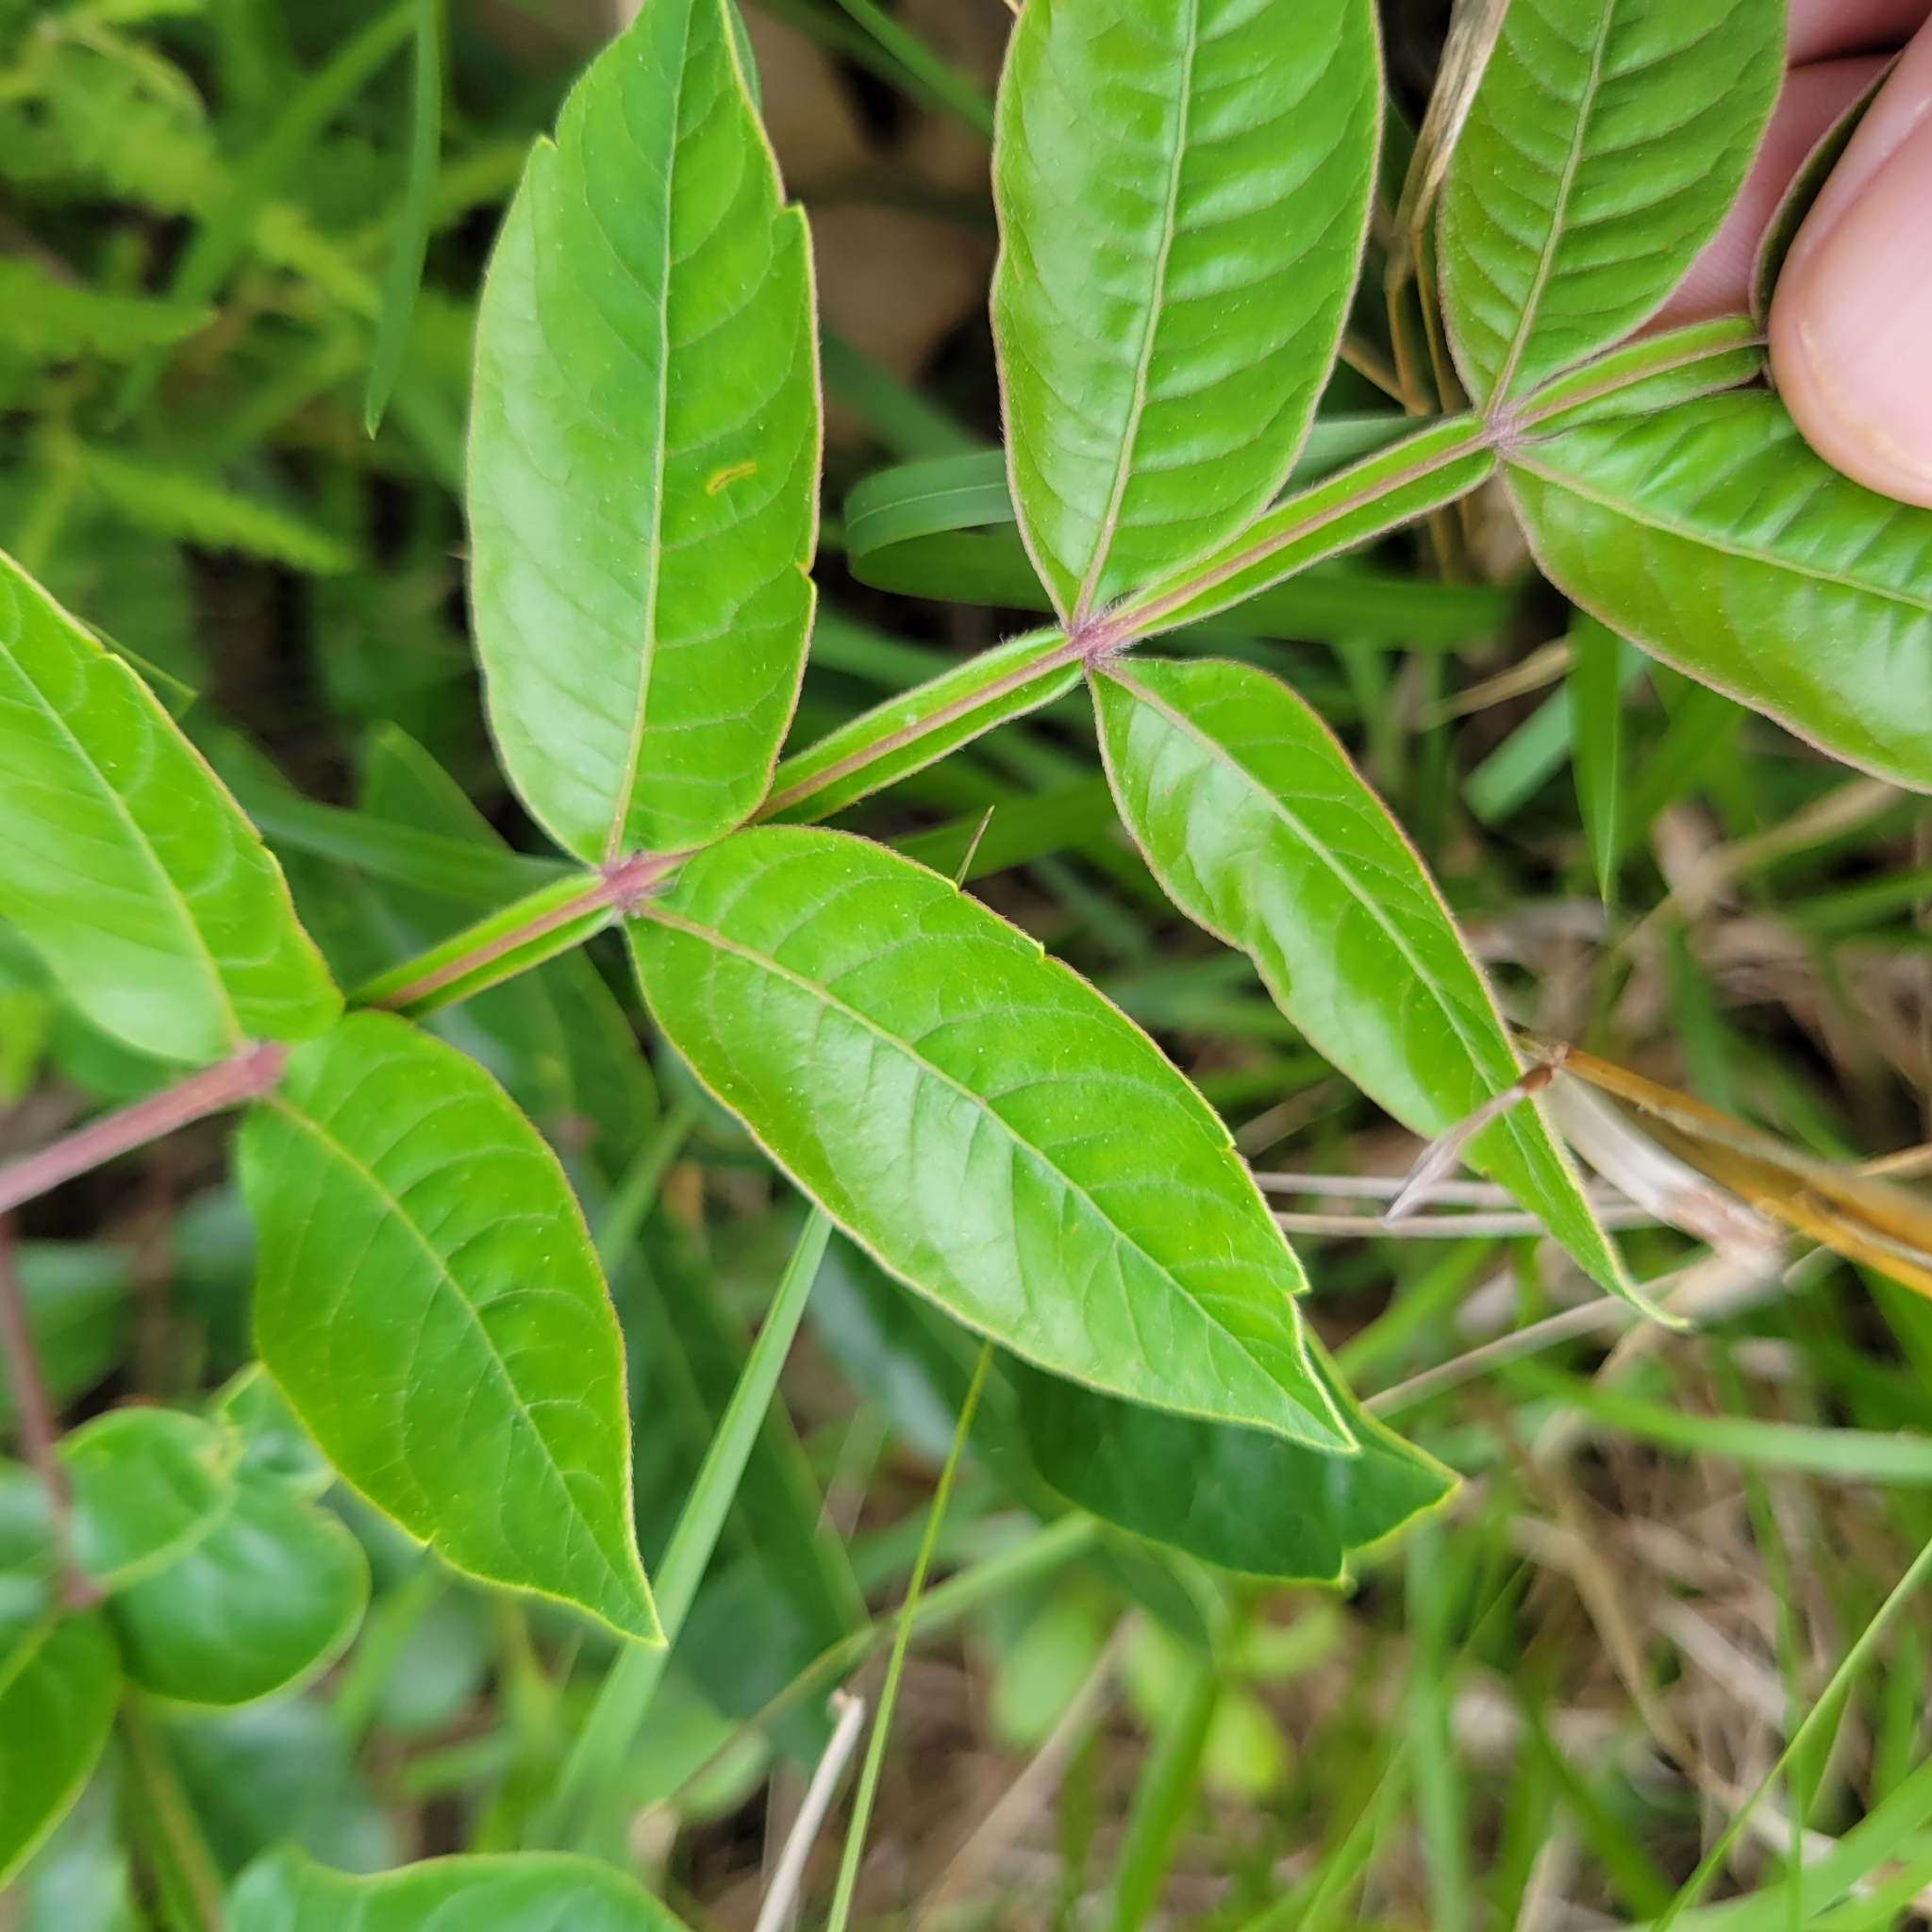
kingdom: Plantae
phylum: Tracheophyta
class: Magnoliopsida
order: Sapindales
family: Anacardiaceae
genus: Rhus
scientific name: Rhus copallina
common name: Shining sumac
